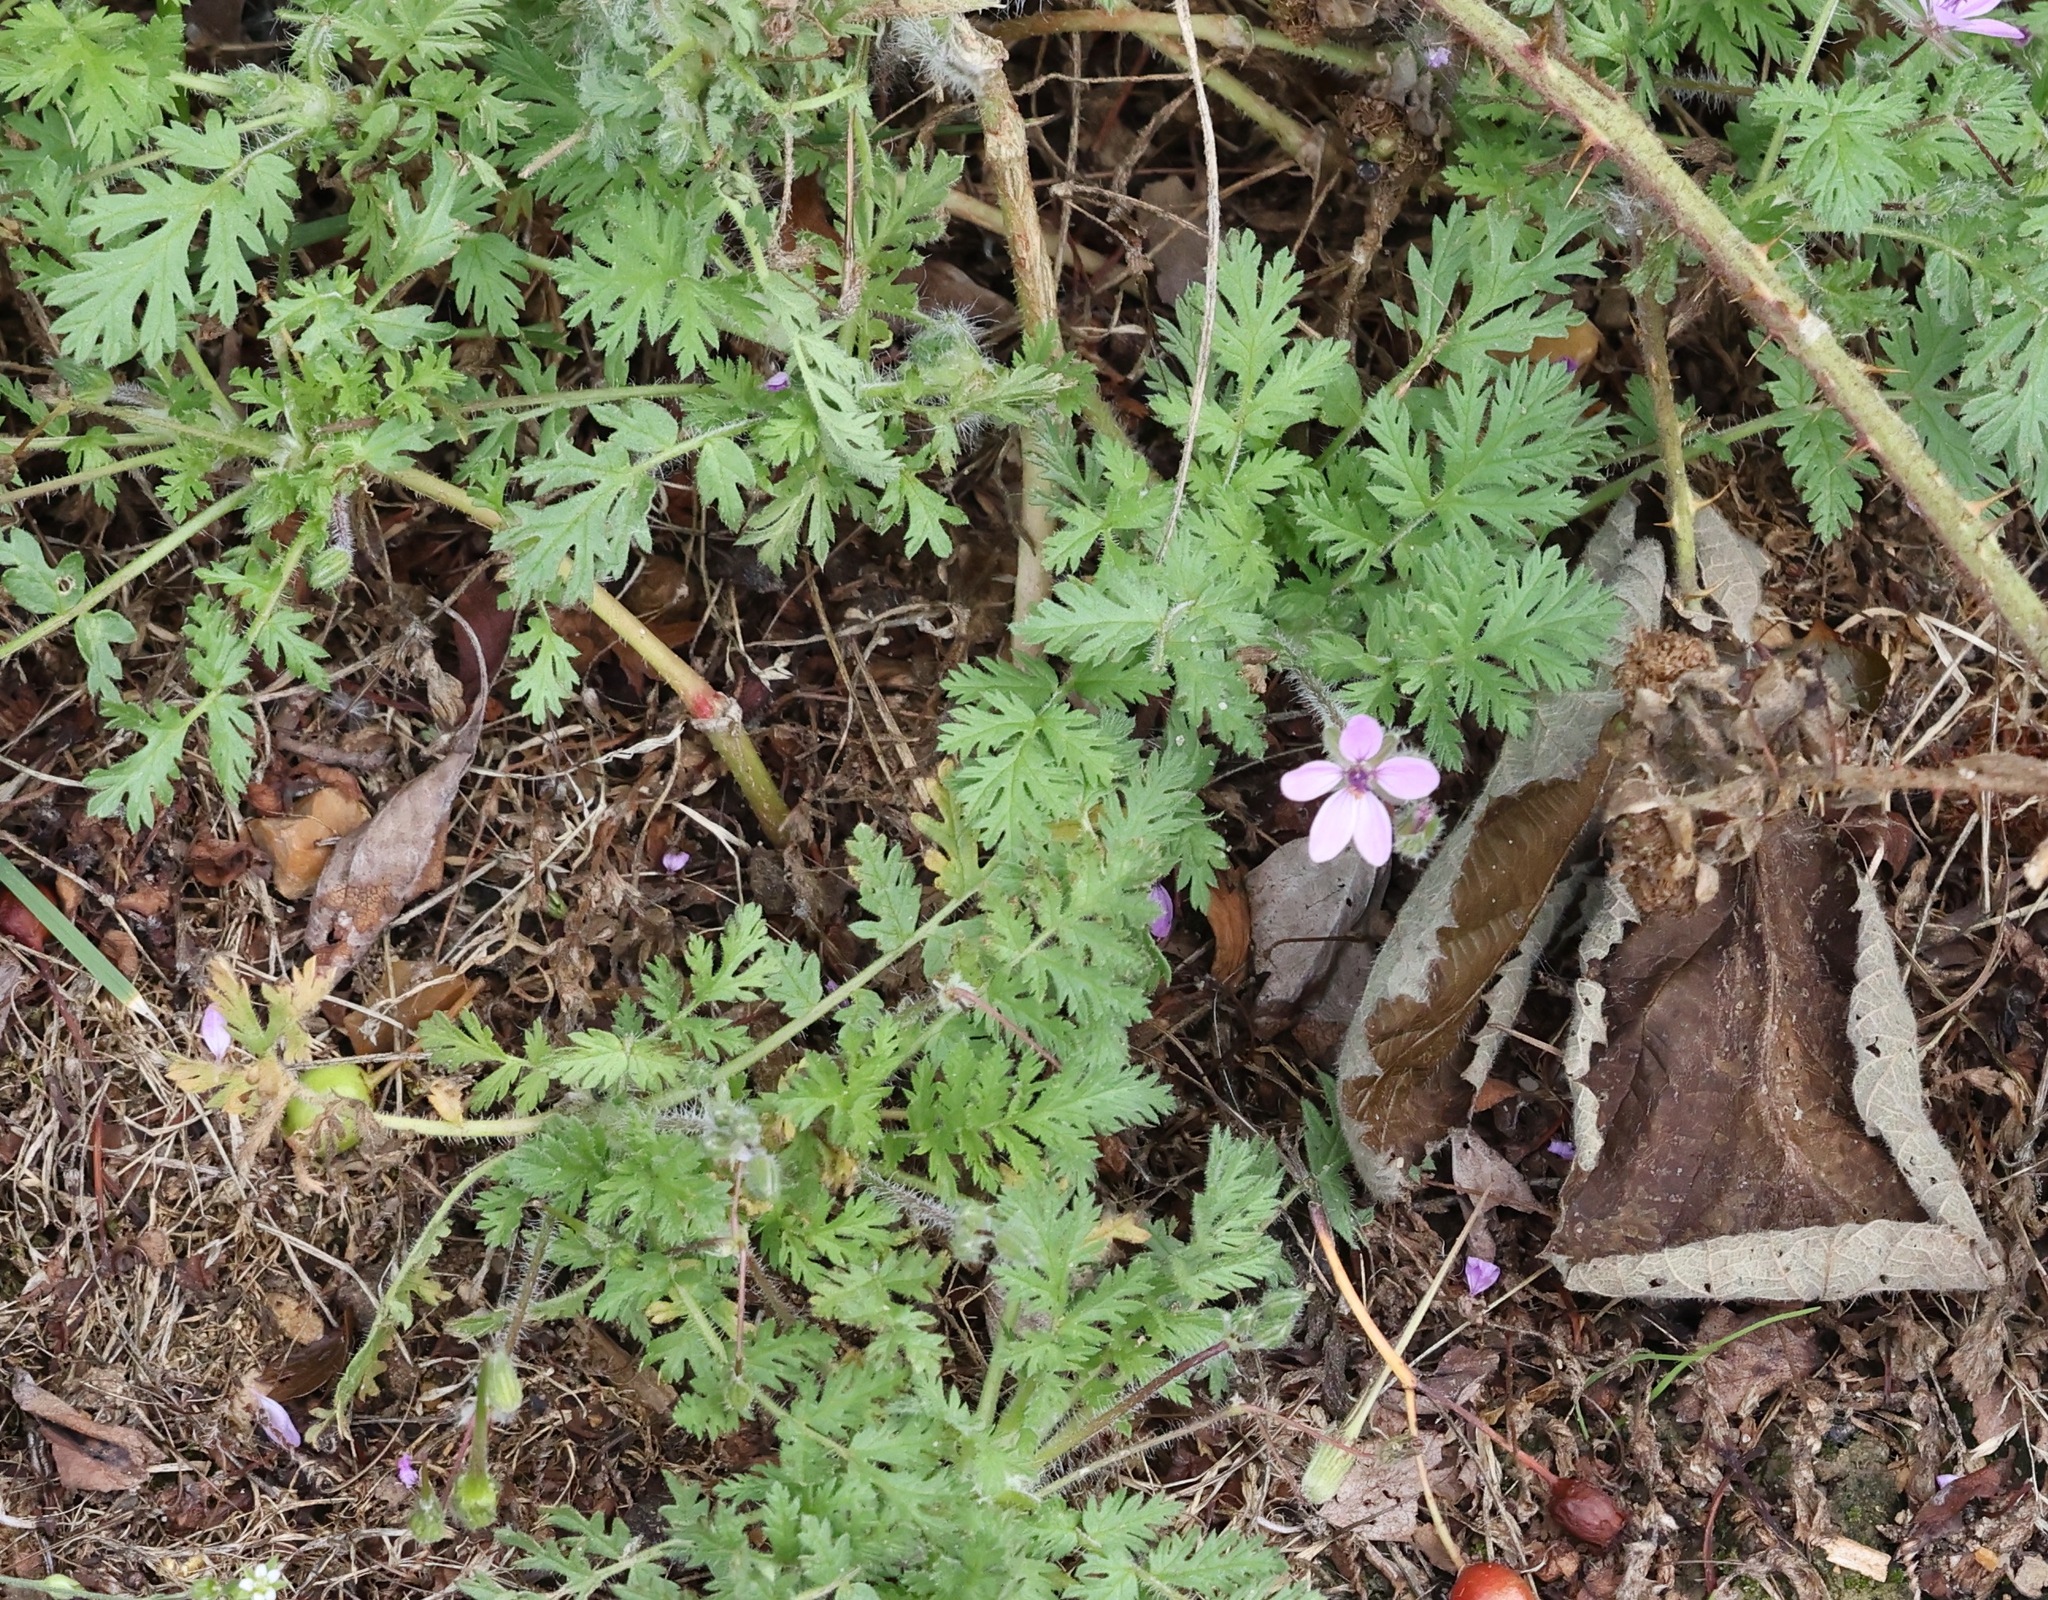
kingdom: Plantae
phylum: Tracheophyta
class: Magnoliopsida
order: Geraniales
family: Geraniaceae
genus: Erodium
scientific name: Erodium cicutarium
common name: Common stork's-bill
